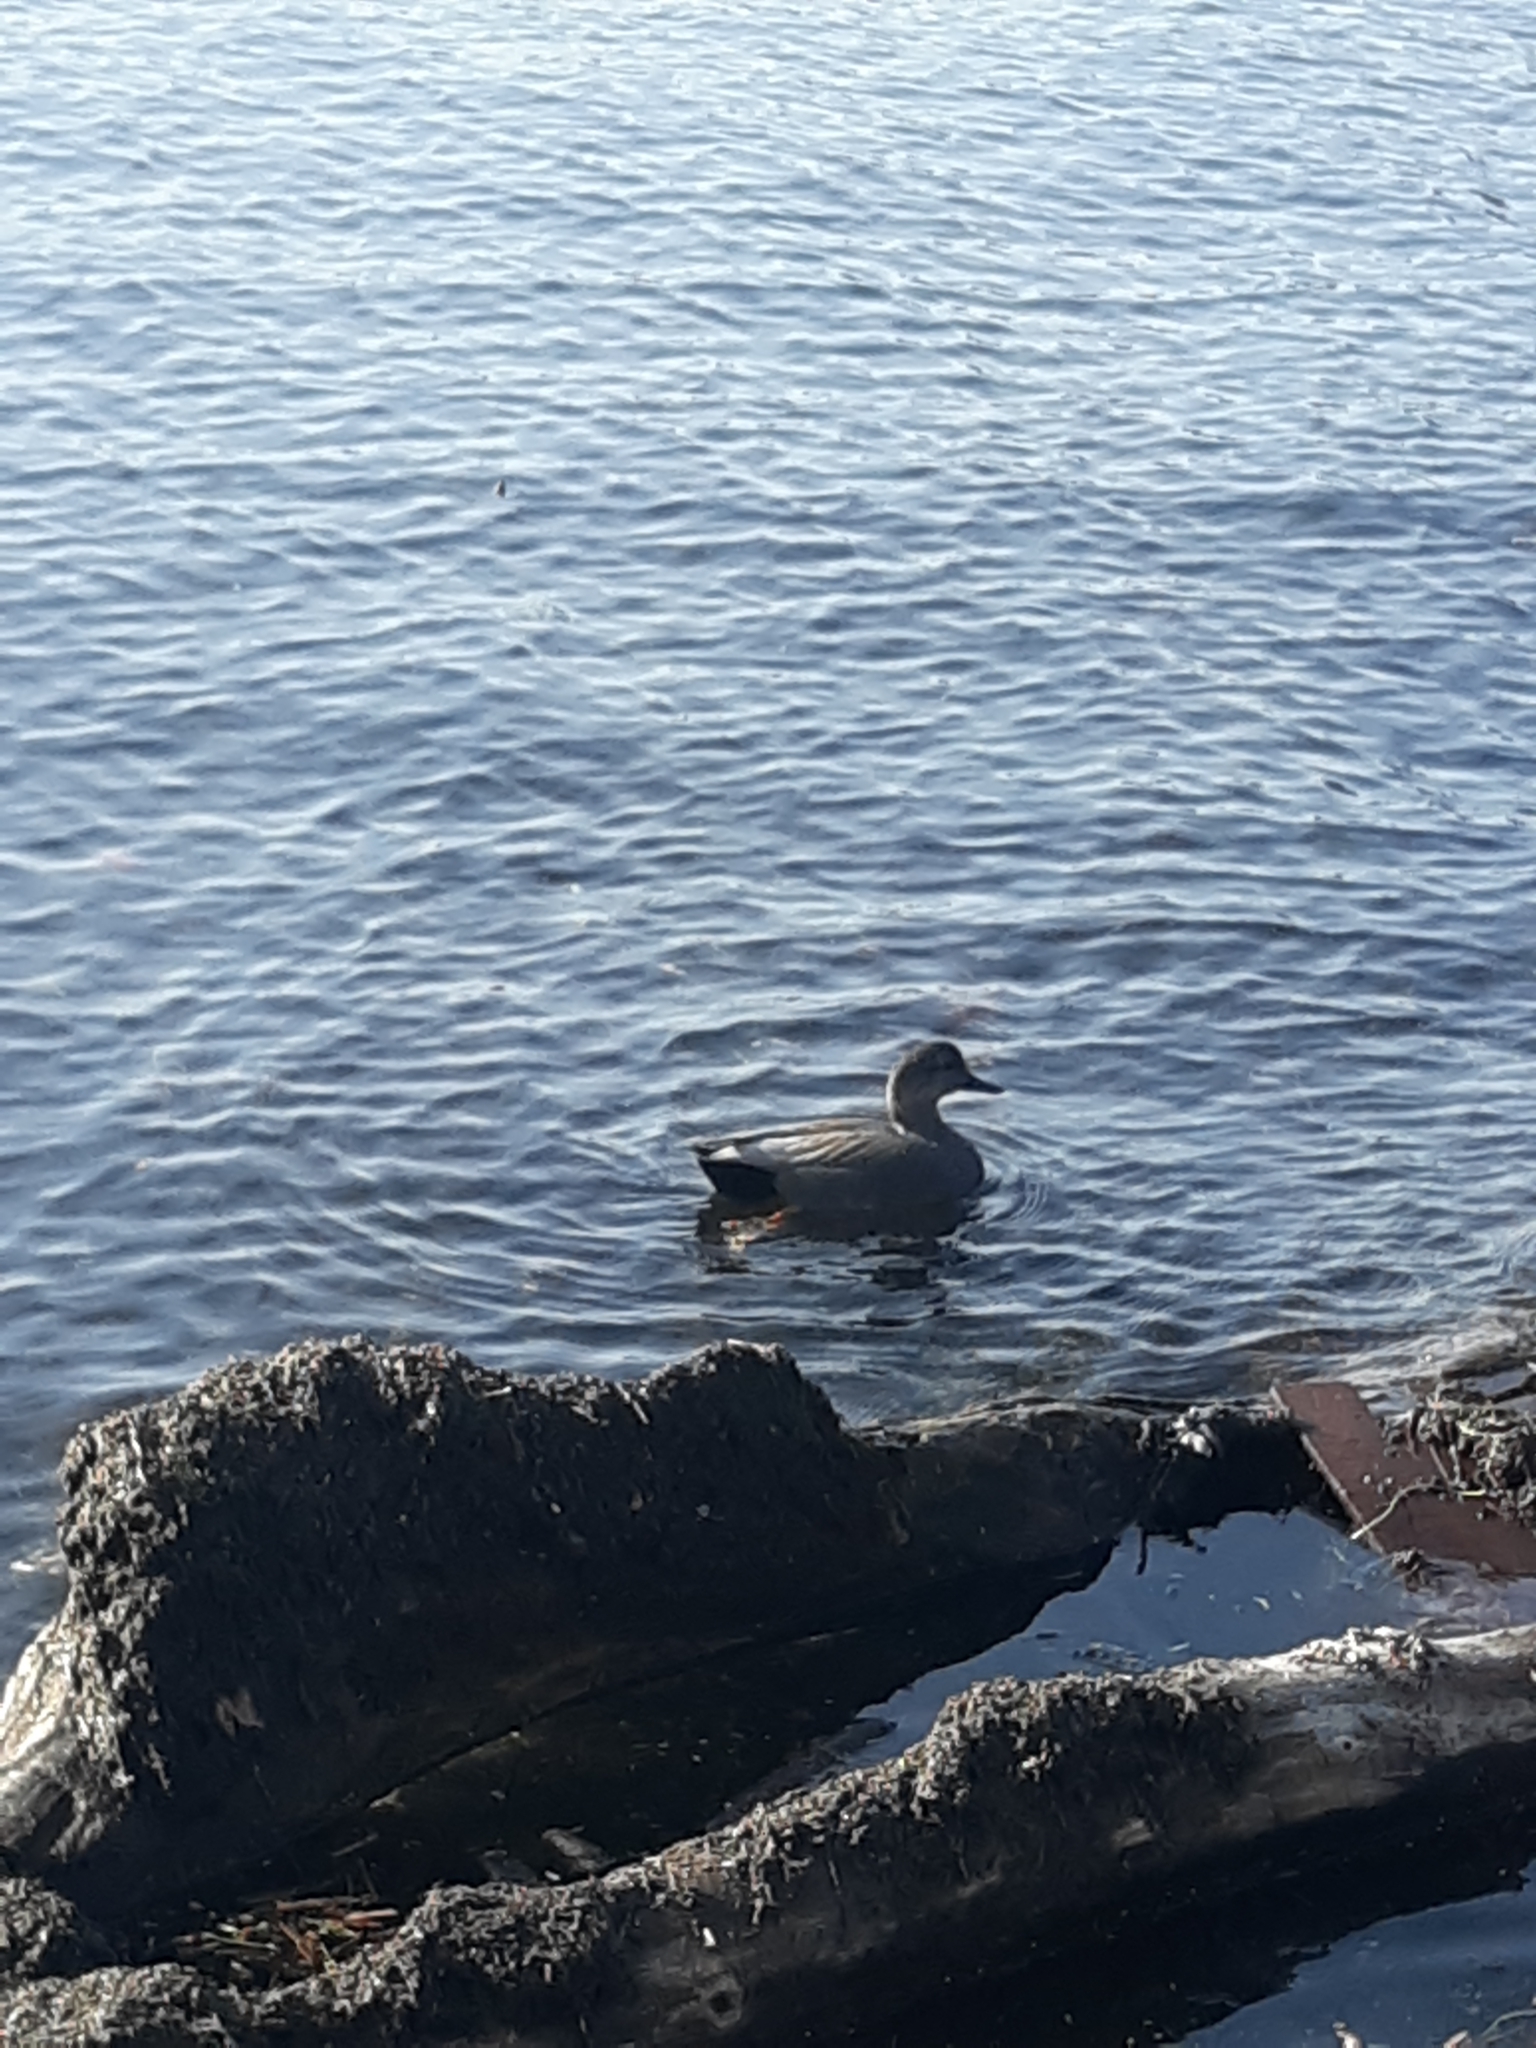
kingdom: Animalia
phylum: Chordata
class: Aves
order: Anseriformes
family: Anatidae
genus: Mareca
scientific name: Mareca strepera
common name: Gadwall
